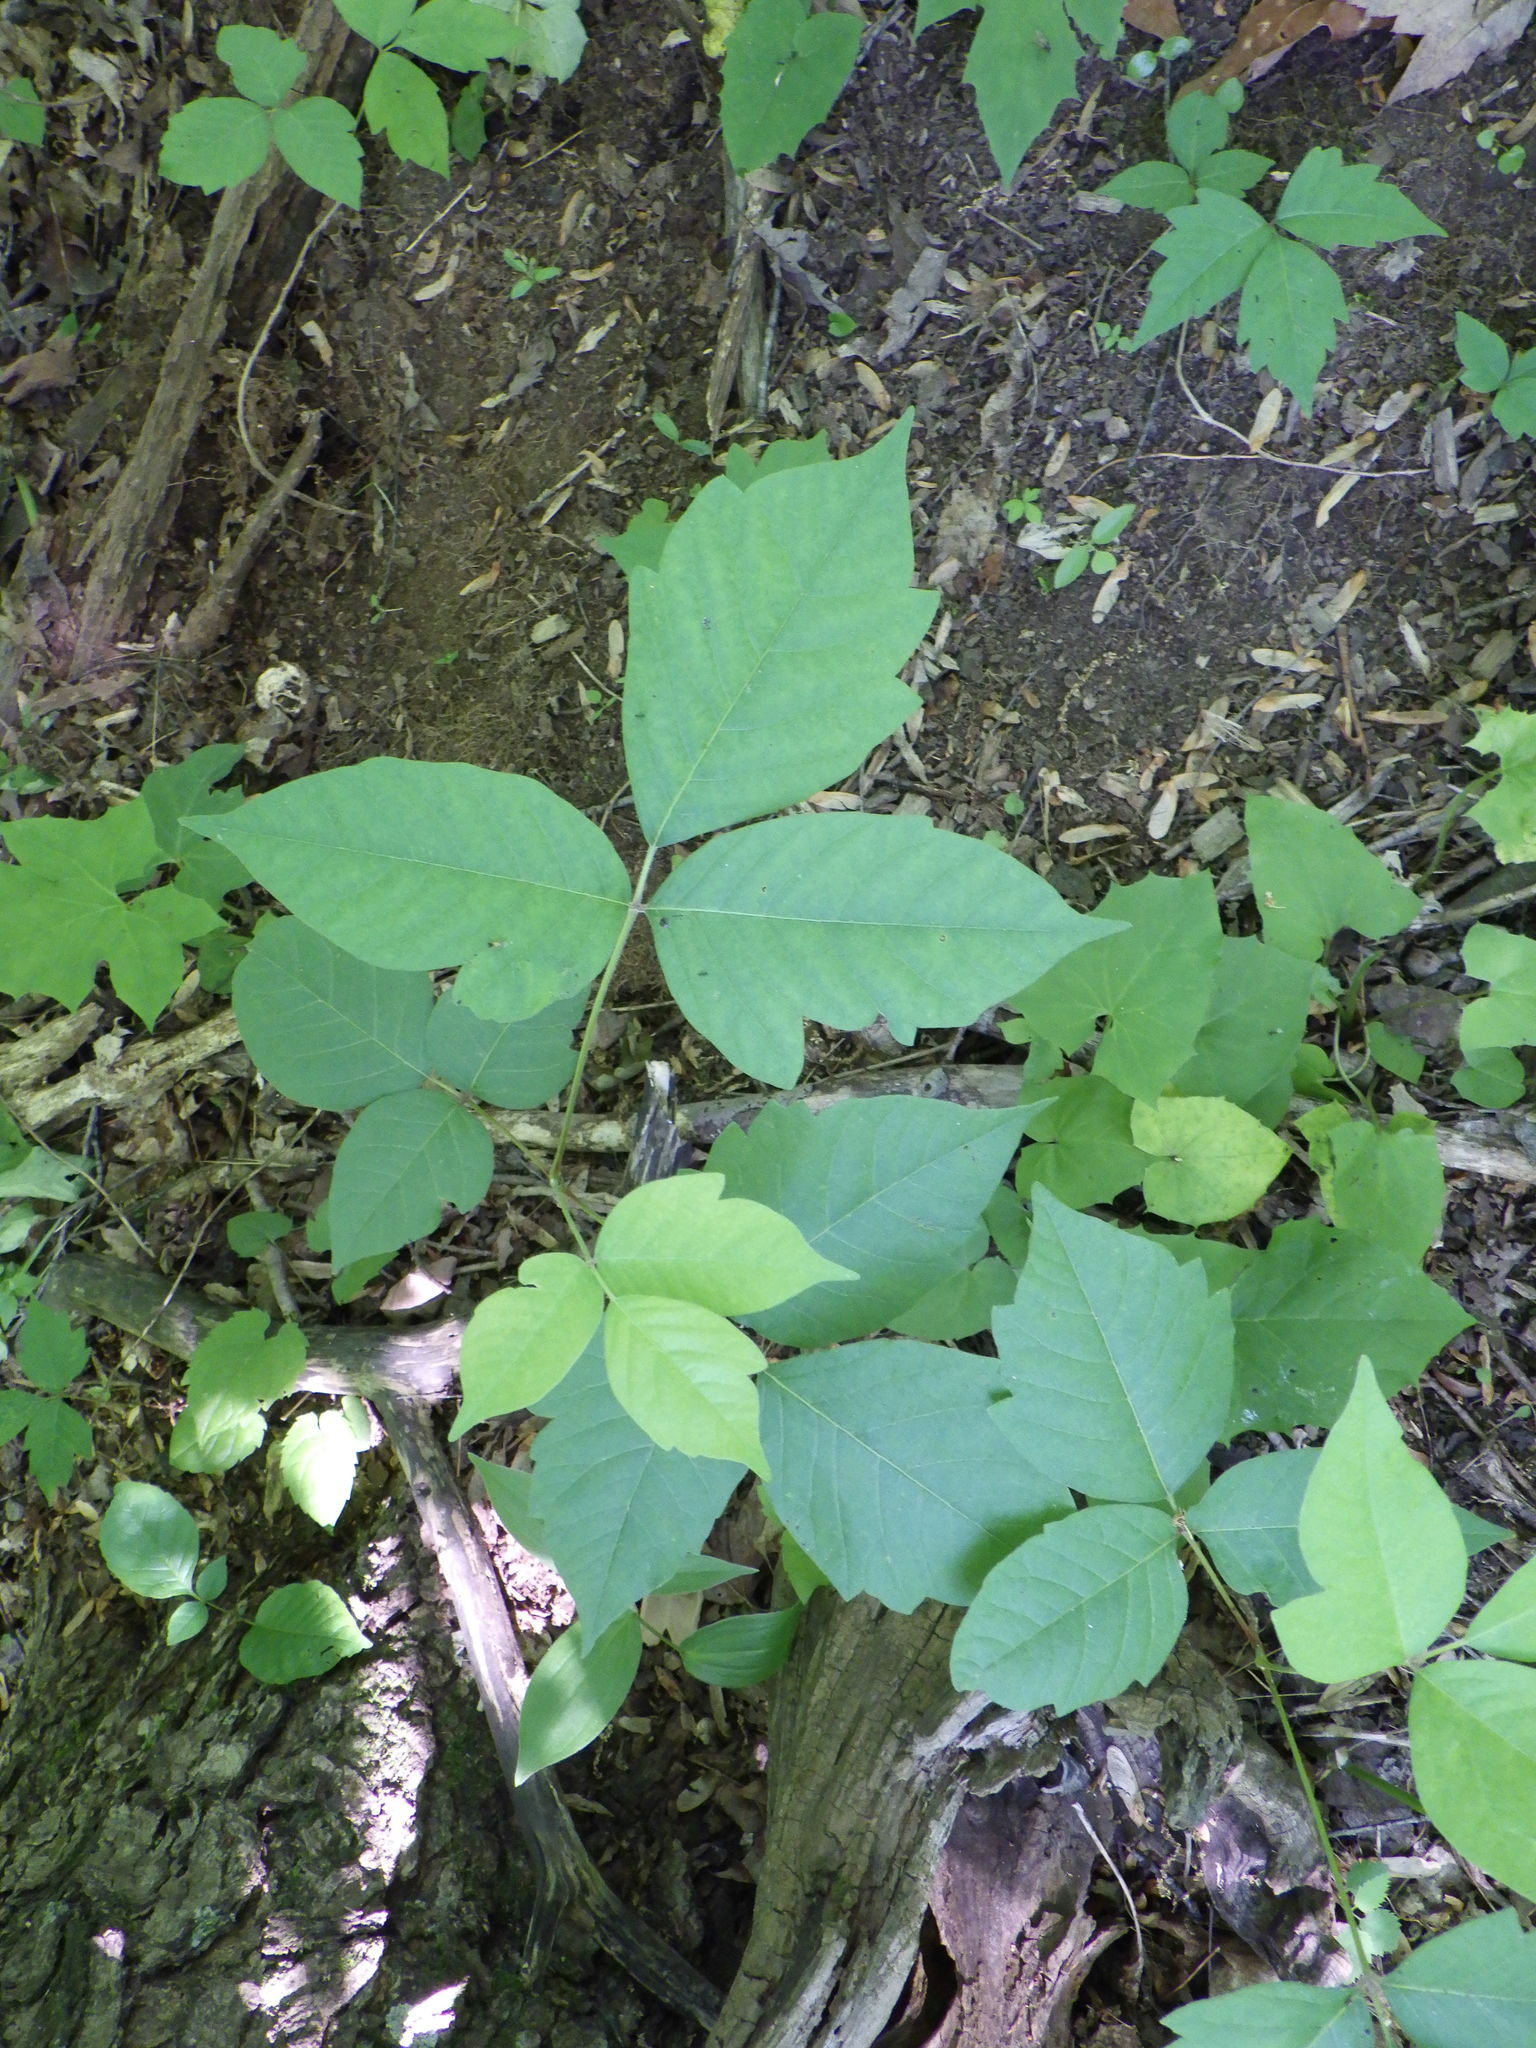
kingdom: Plantae
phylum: Tracheophyta
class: Magnoliopsida
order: Sapindales
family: Anacardiaceae
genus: Toxicodendron
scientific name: Toxicodendron radicans
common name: Poison ivy
